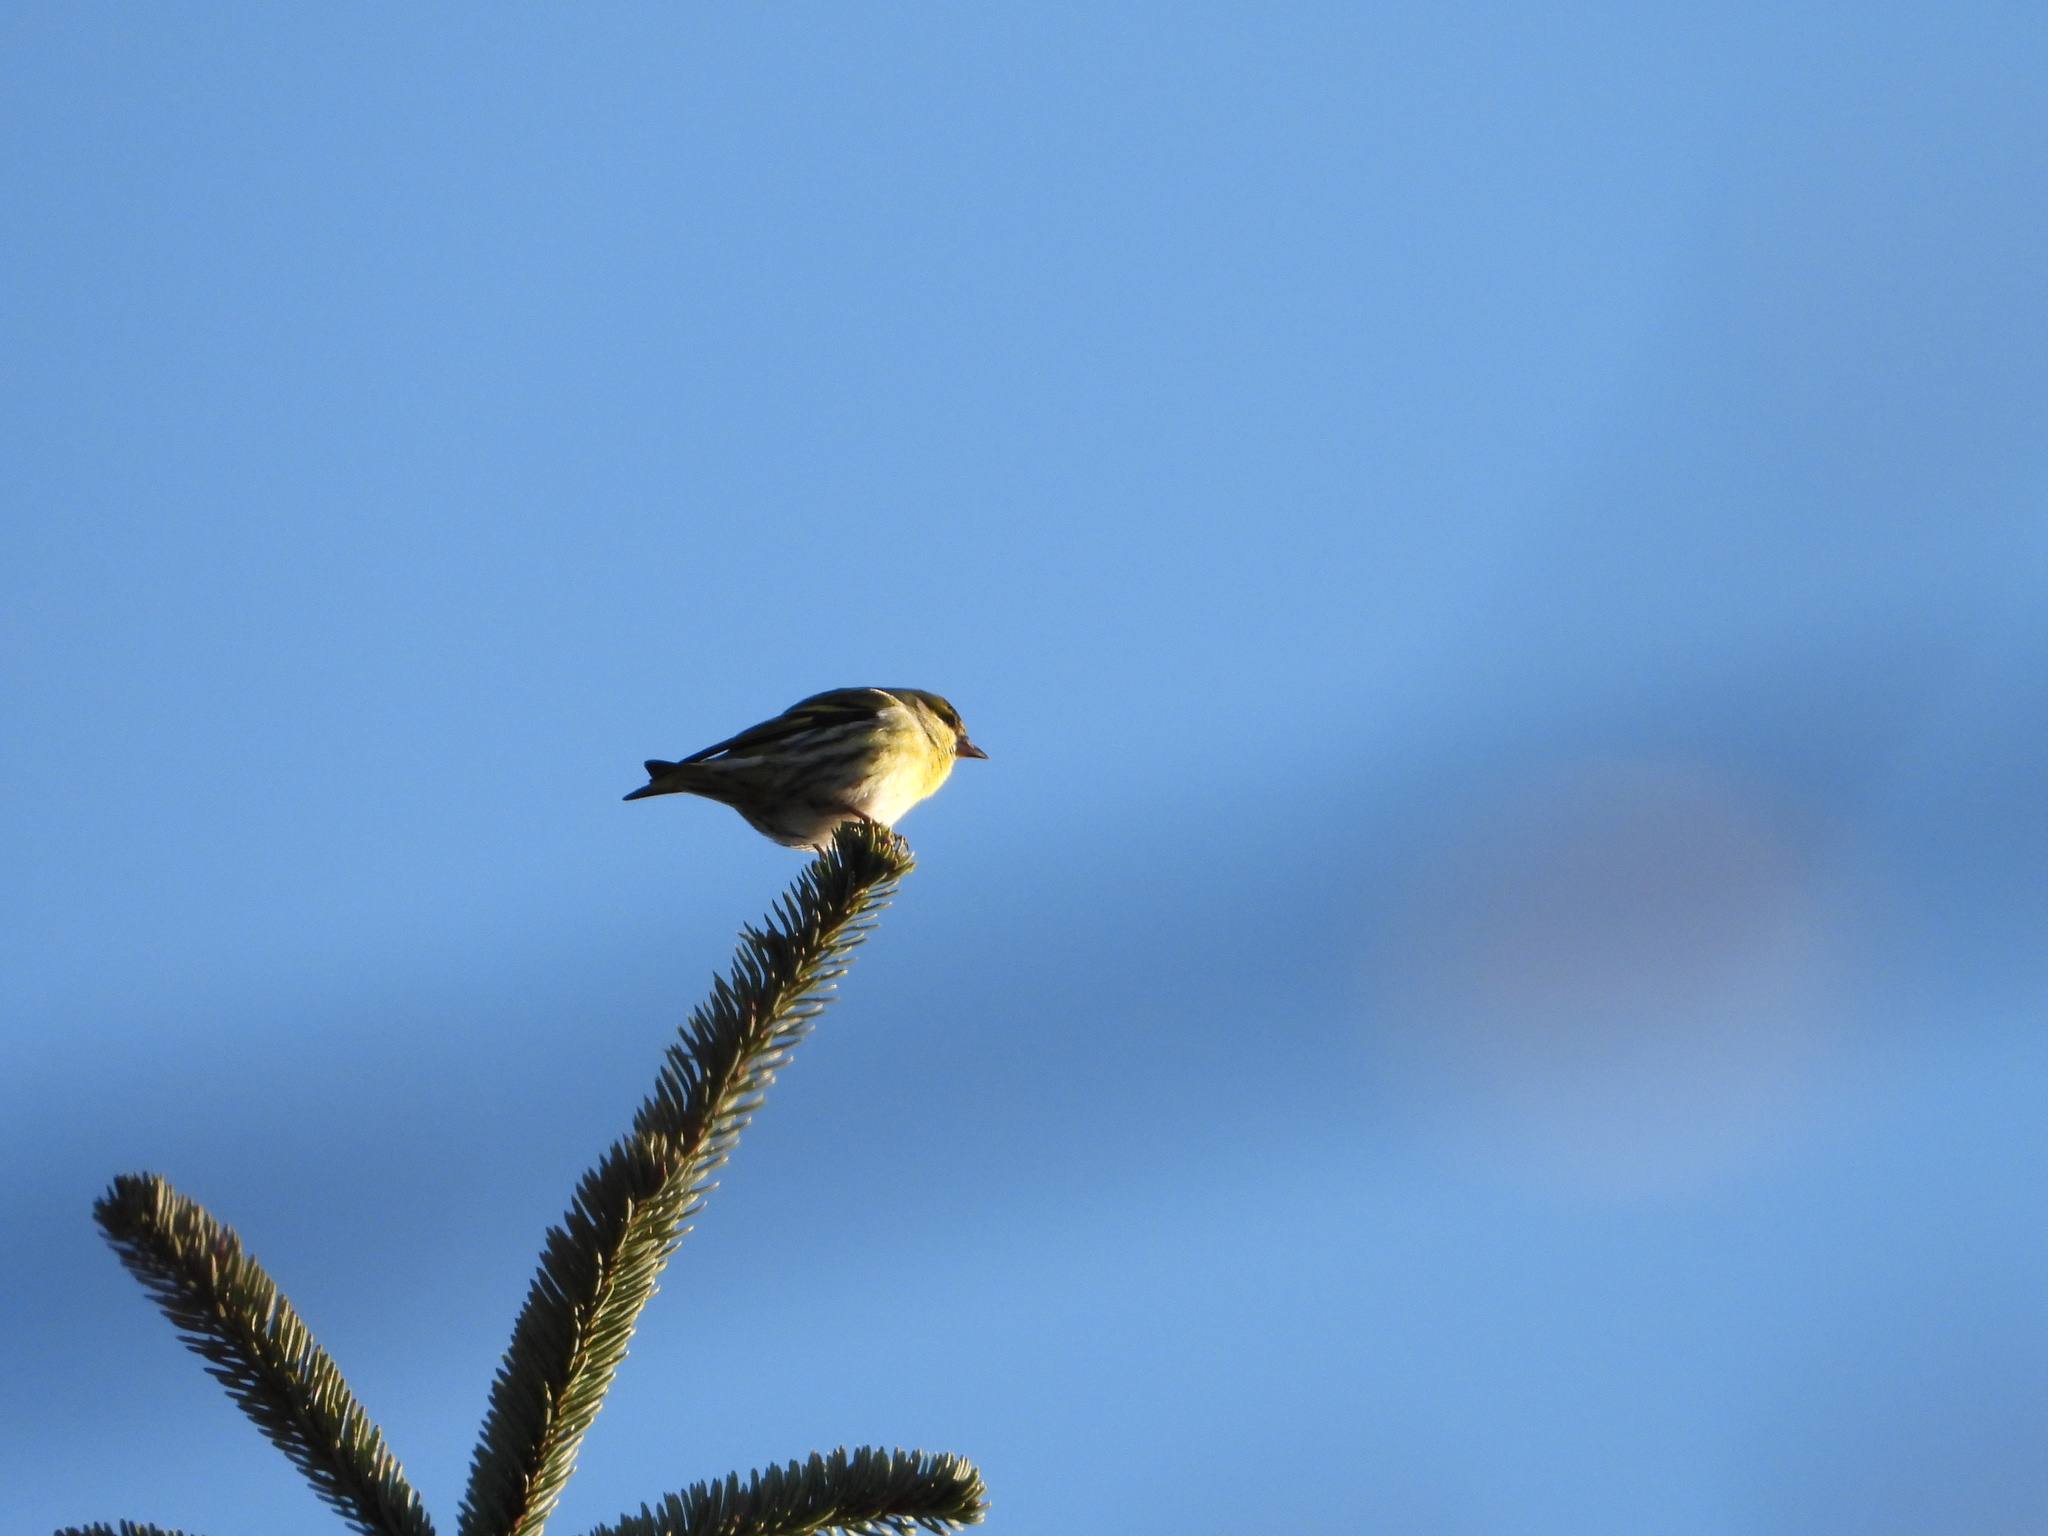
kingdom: Animalia
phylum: Chordata
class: Aves
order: Passeriformes
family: Fringillidae
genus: Spinus
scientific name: Spinus spinus
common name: Eurasian siskin
